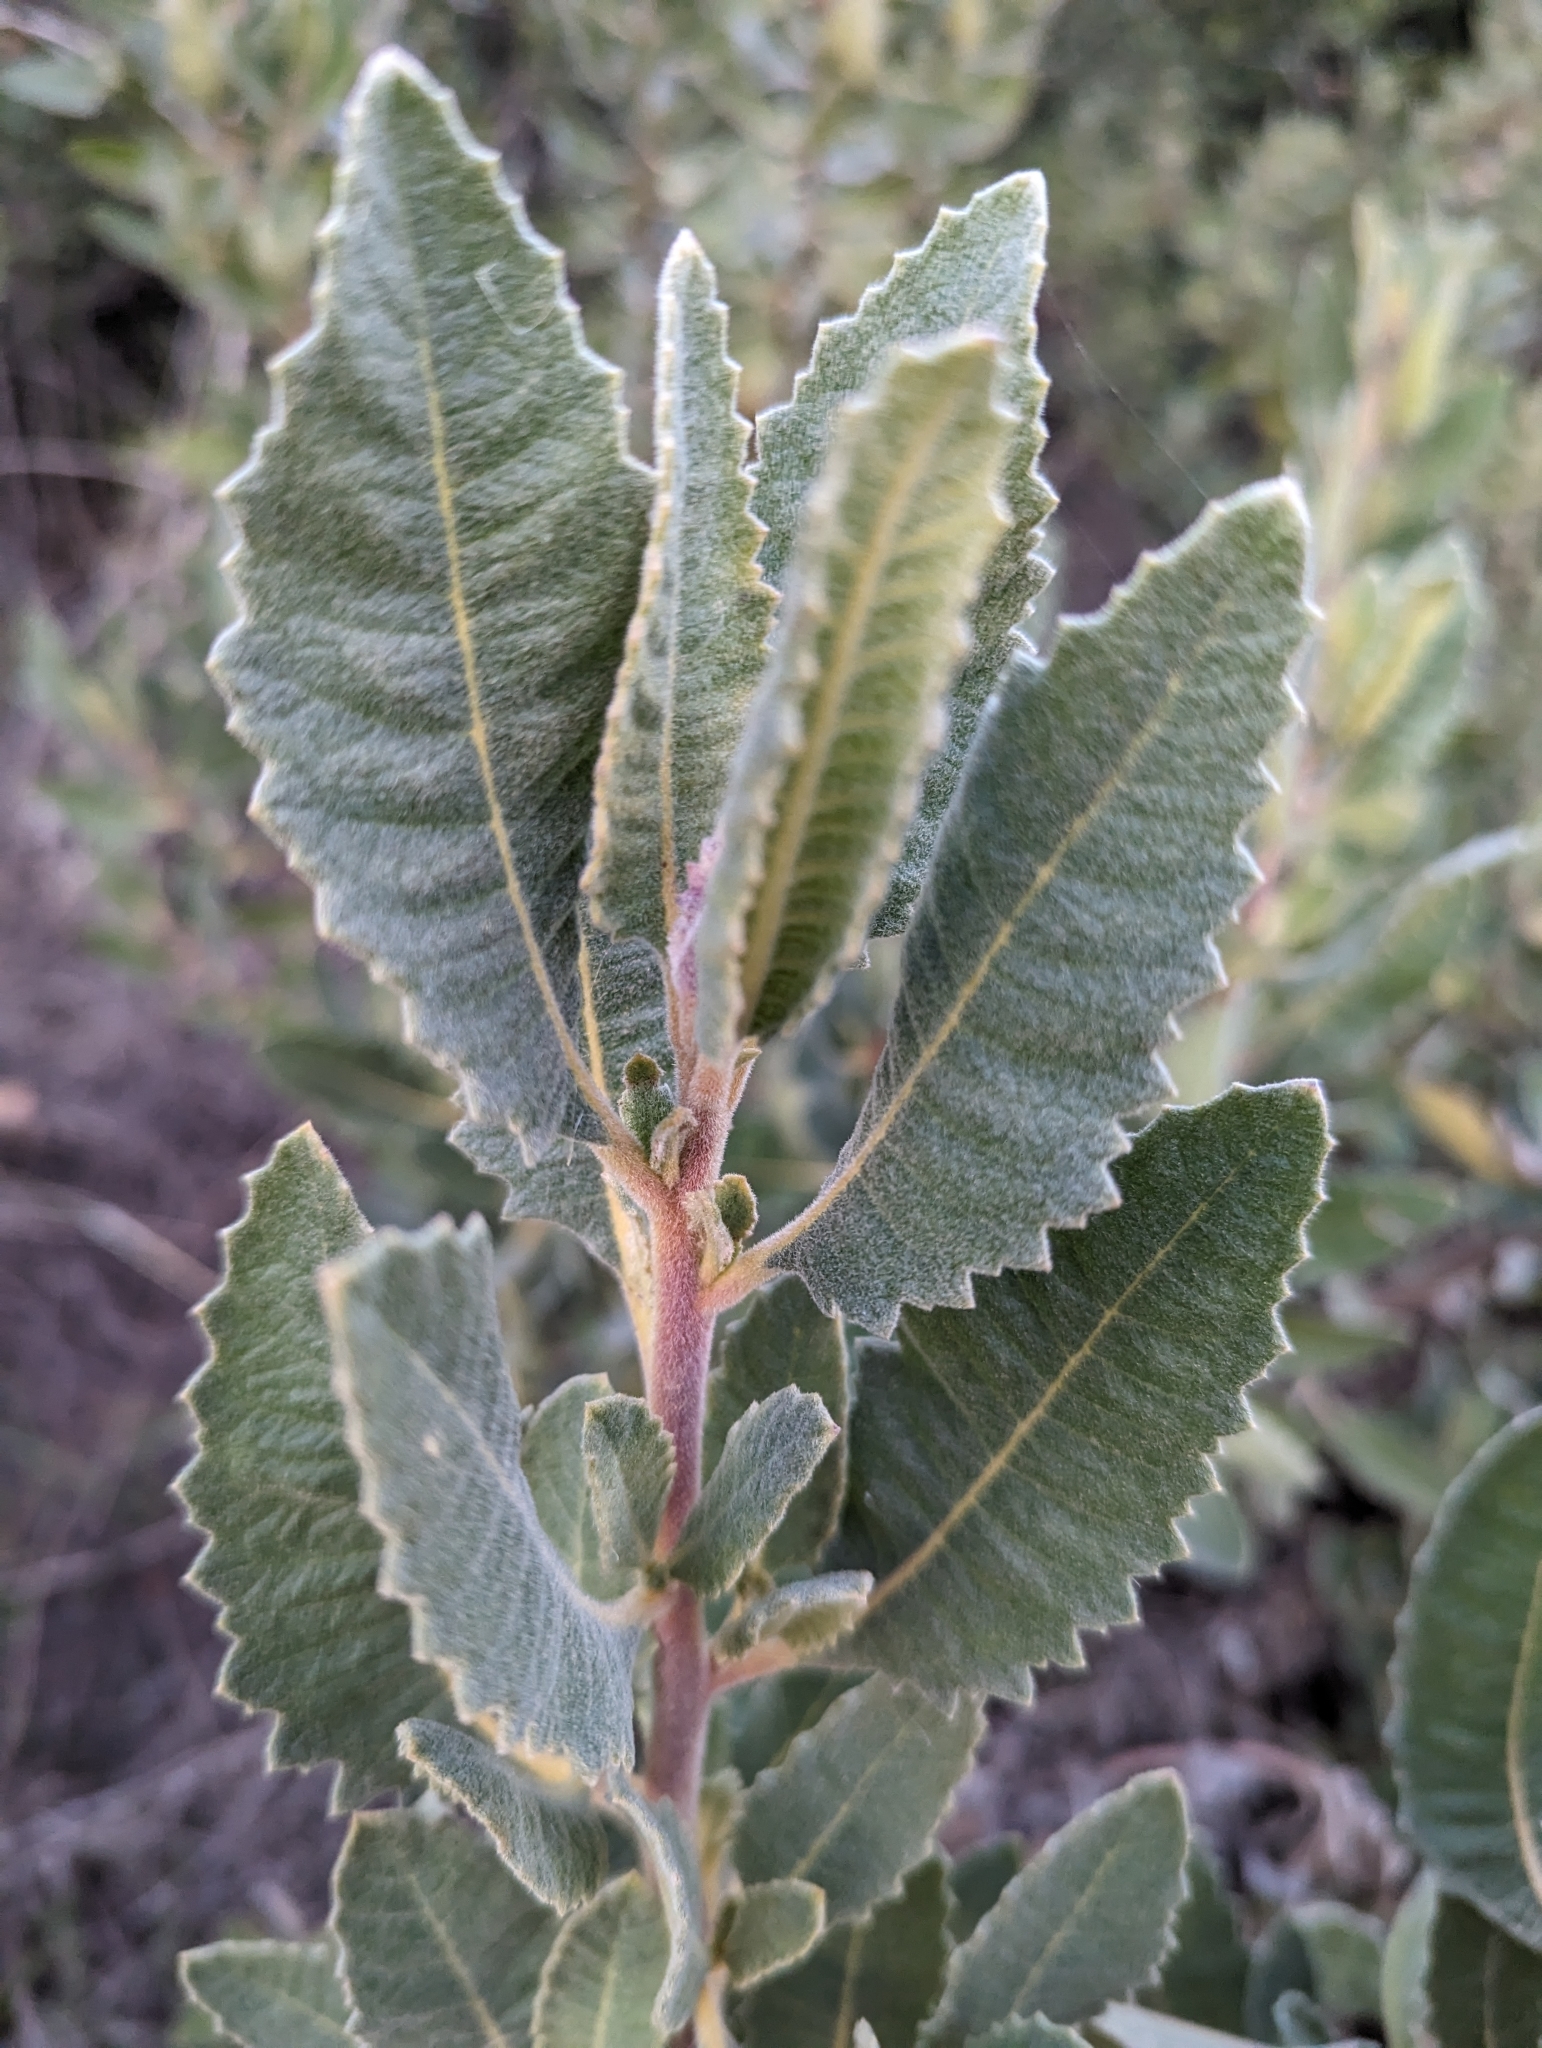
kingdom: Plantae
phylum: Tracheophyta
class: Magnoliopsida
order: Boraginales
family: Namaceae
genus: Eriodictyon
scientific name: Eriodictyon crassifolium
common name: Thick-leaf yerba-santa
